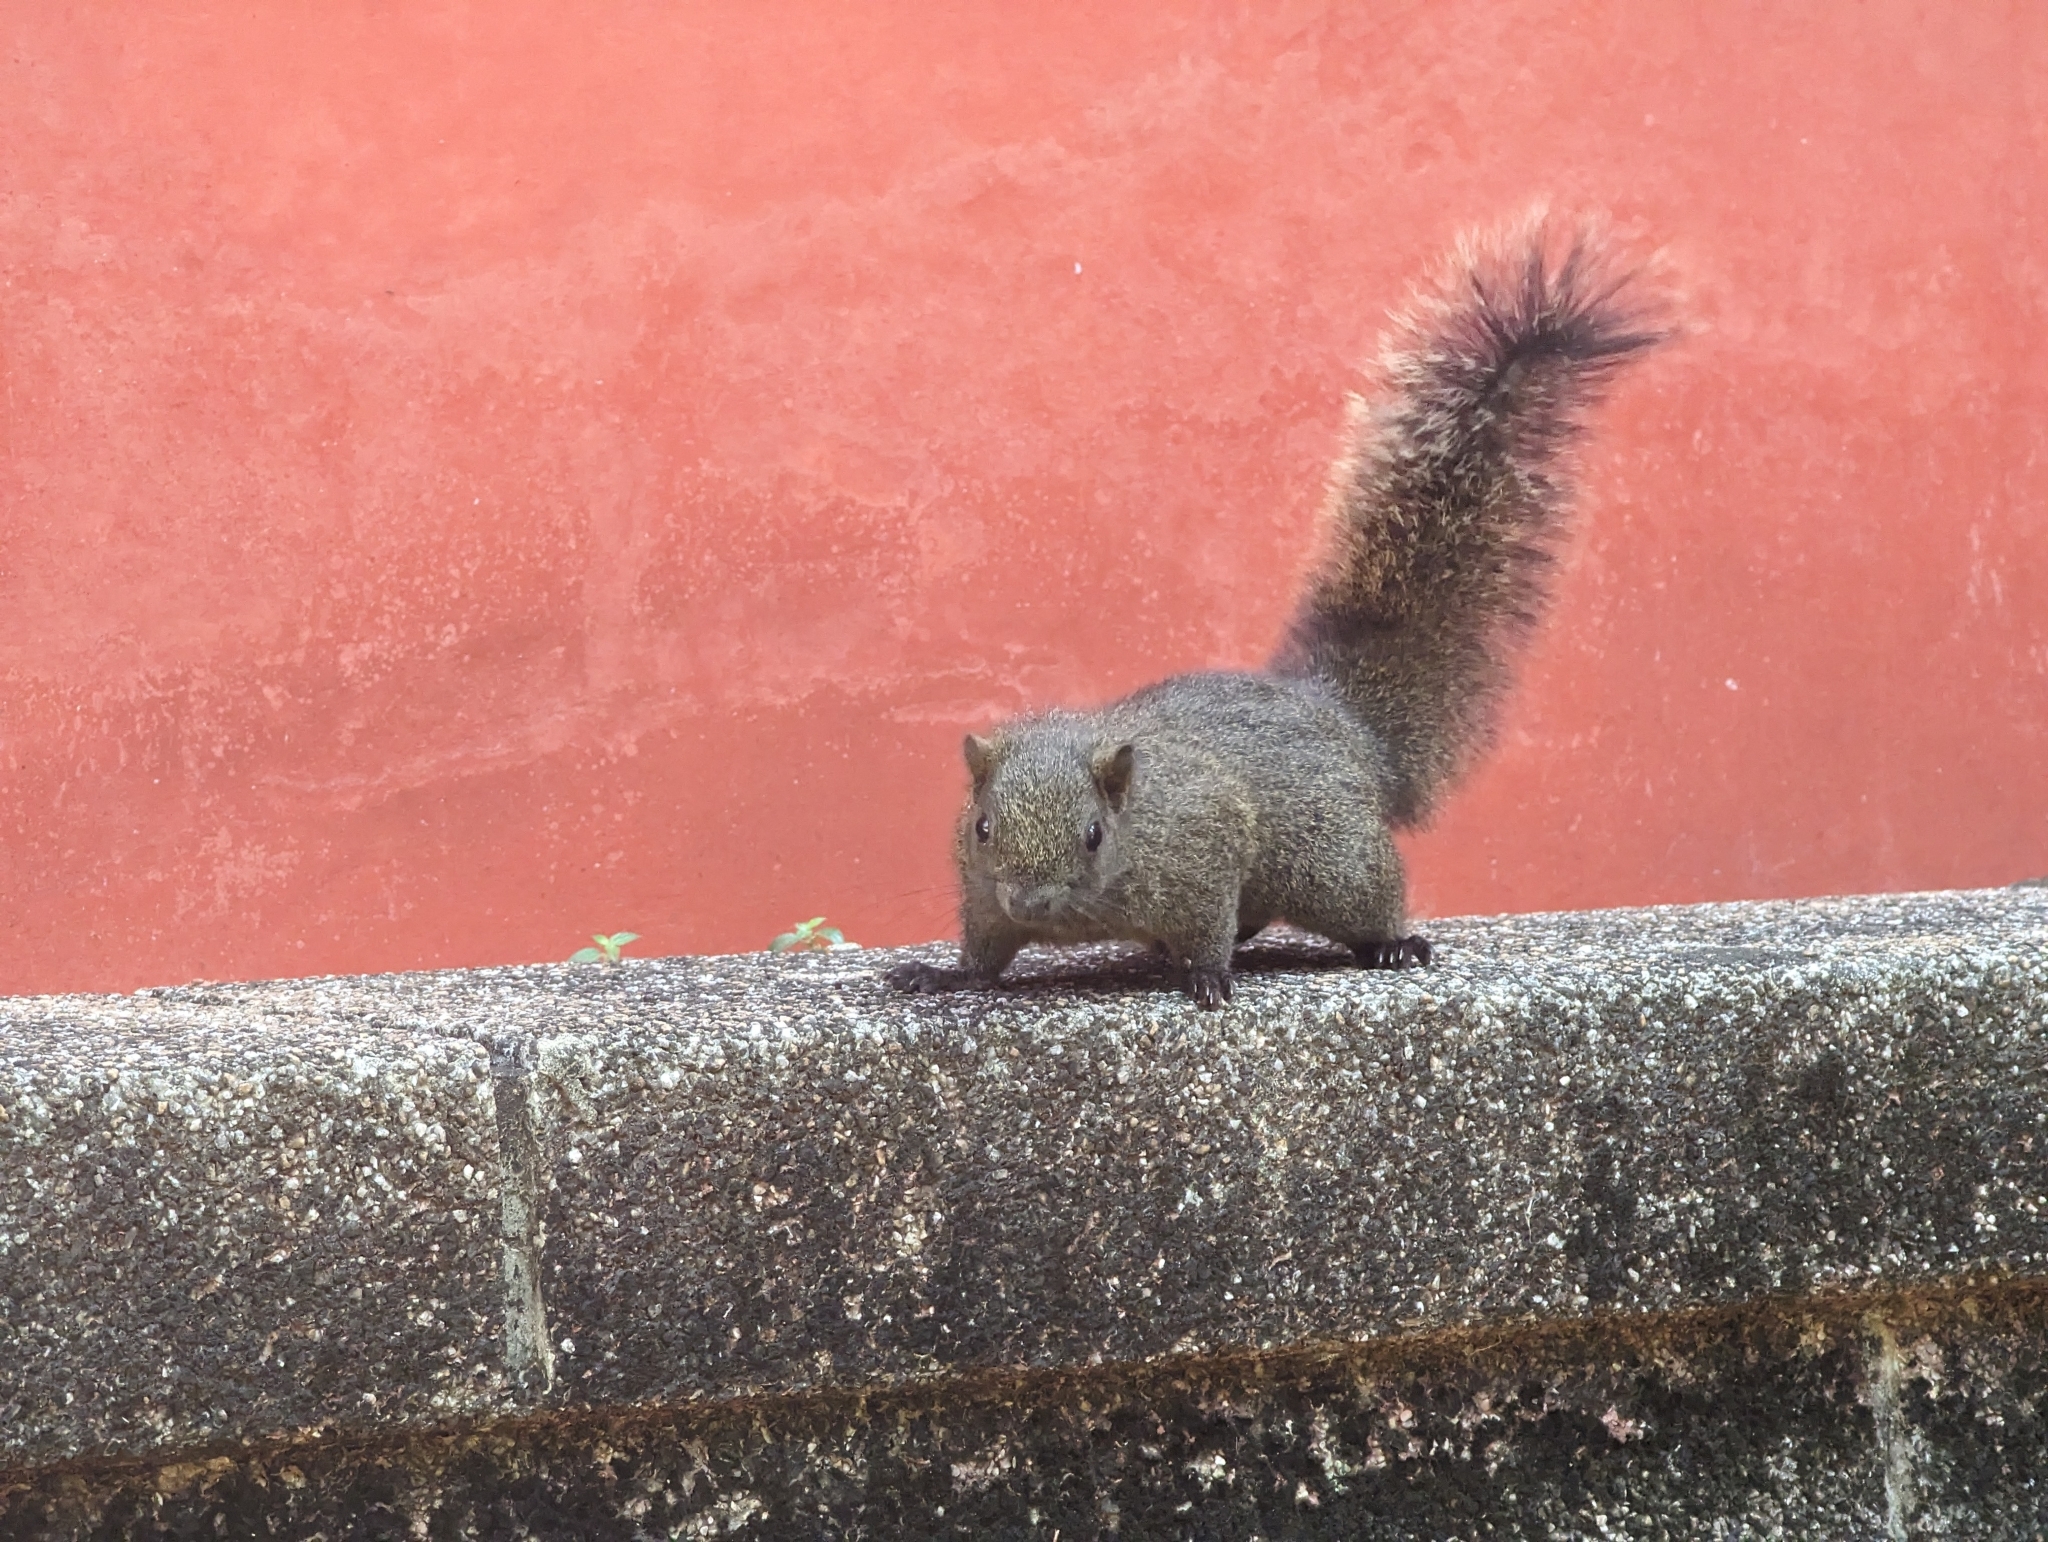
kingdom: Animalia
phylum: Chordata
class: Mammalia
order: Rodentia
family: Sciuridae
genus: Callosciurus
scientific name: Callosciurus erythraeus
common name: Pallas's squirrel
